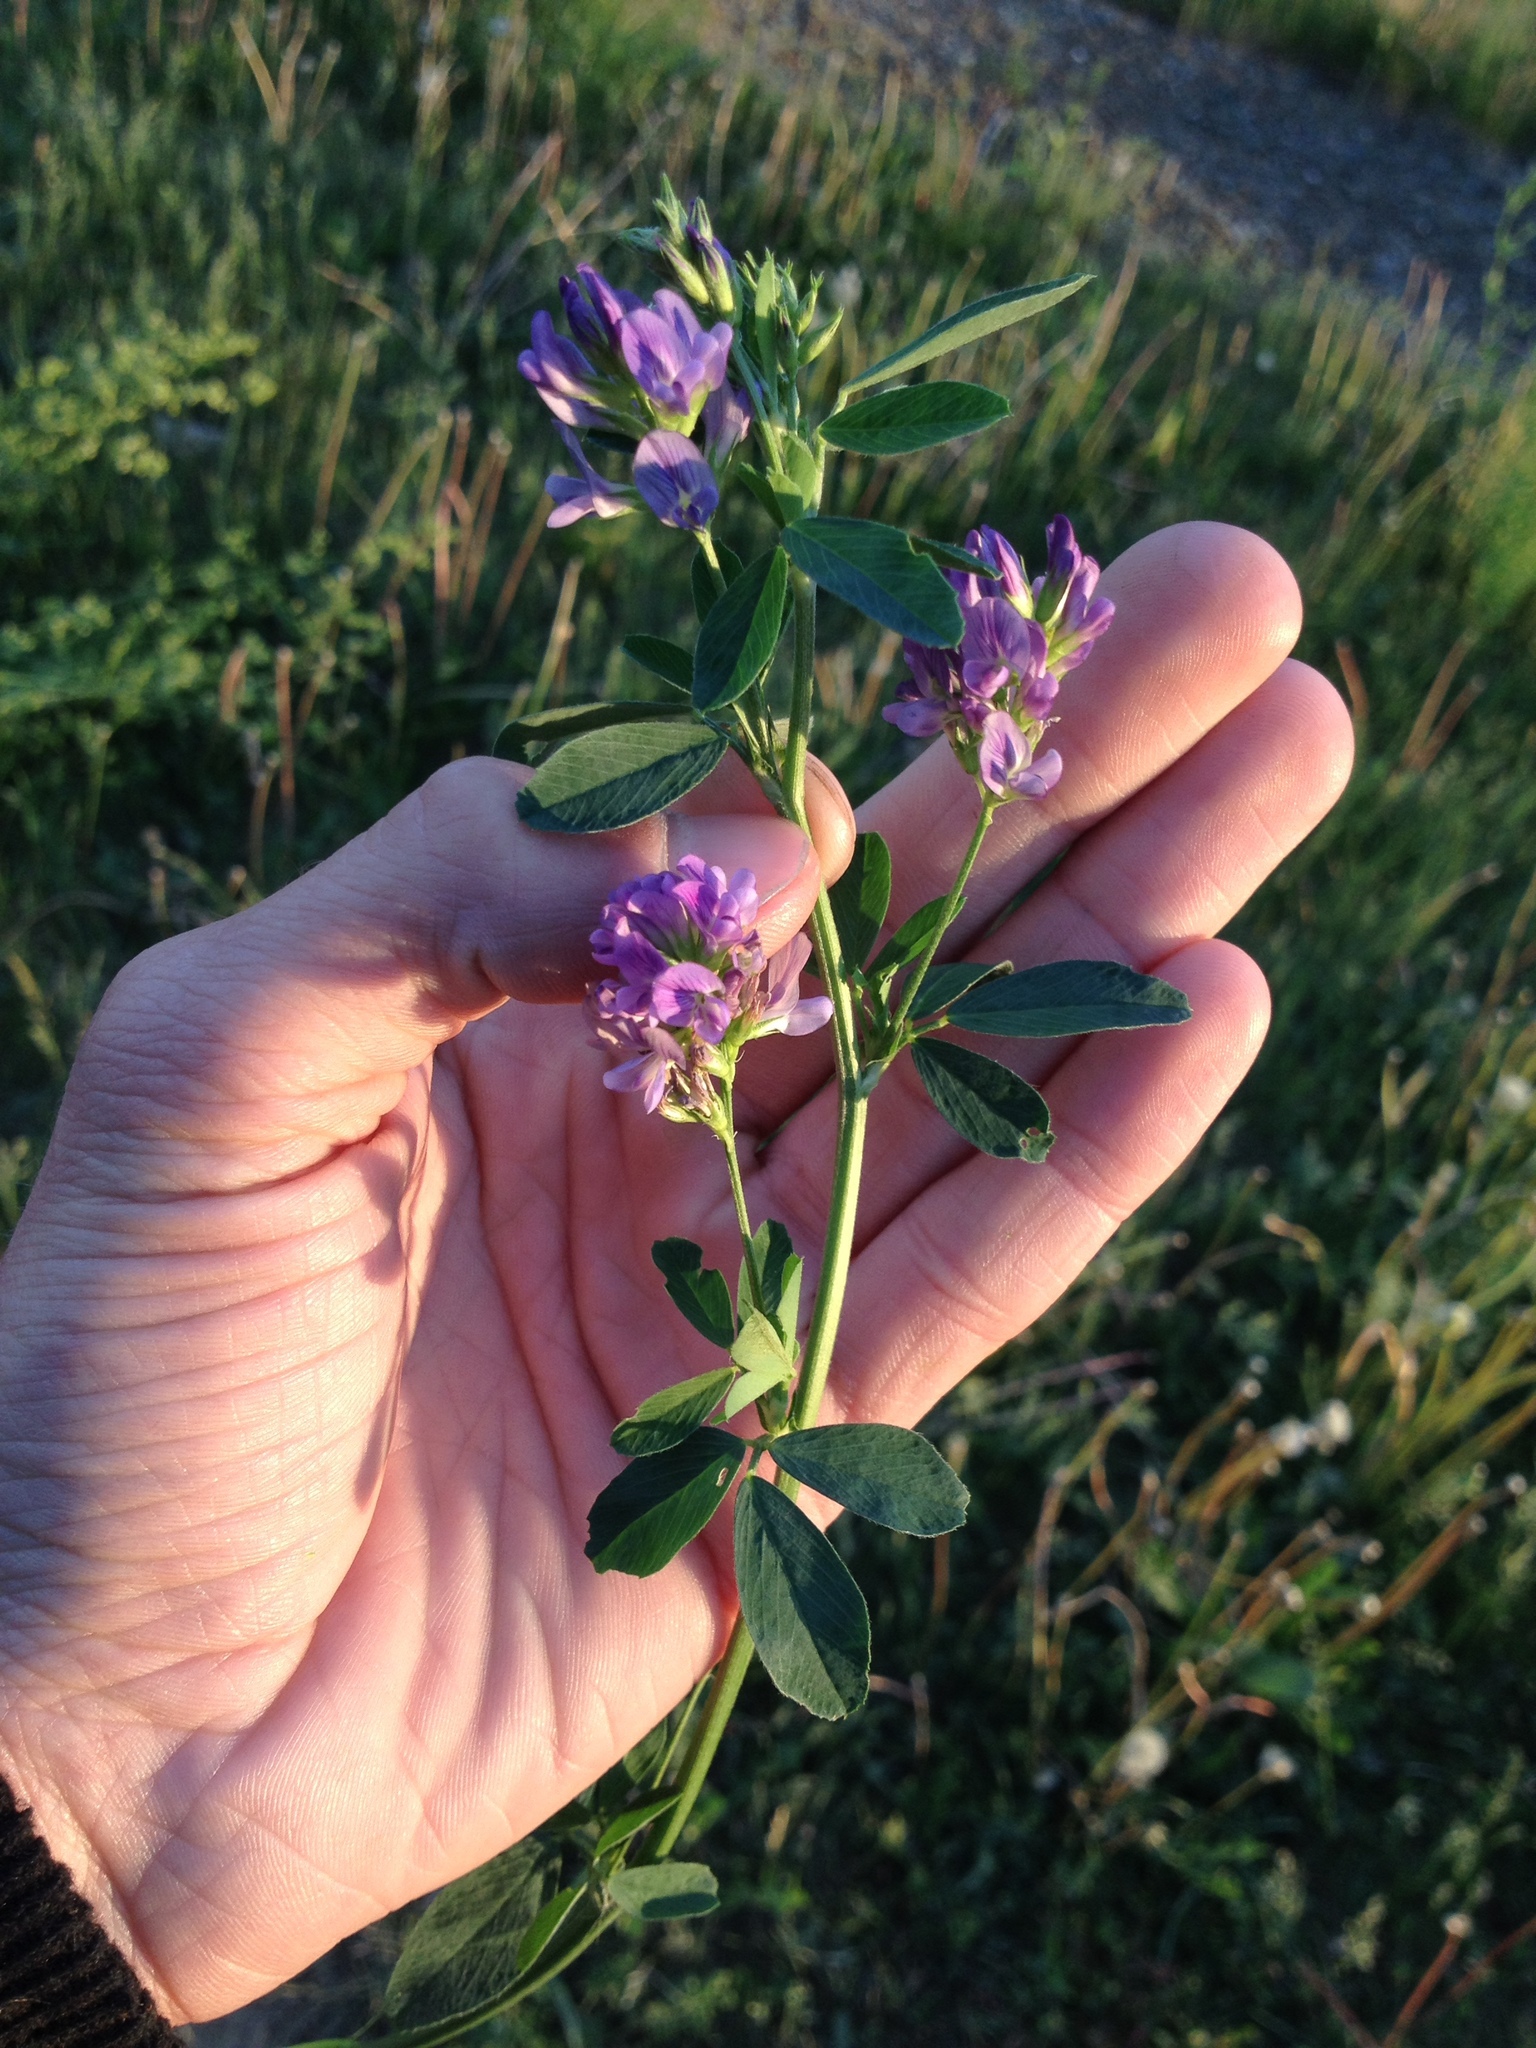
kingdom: Plantae
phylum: Tracheophyta
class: Magnoliopsida
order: Fabales
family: Fabaceae
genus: Medicago
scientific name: Medicago sativa
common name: Alfalfa
